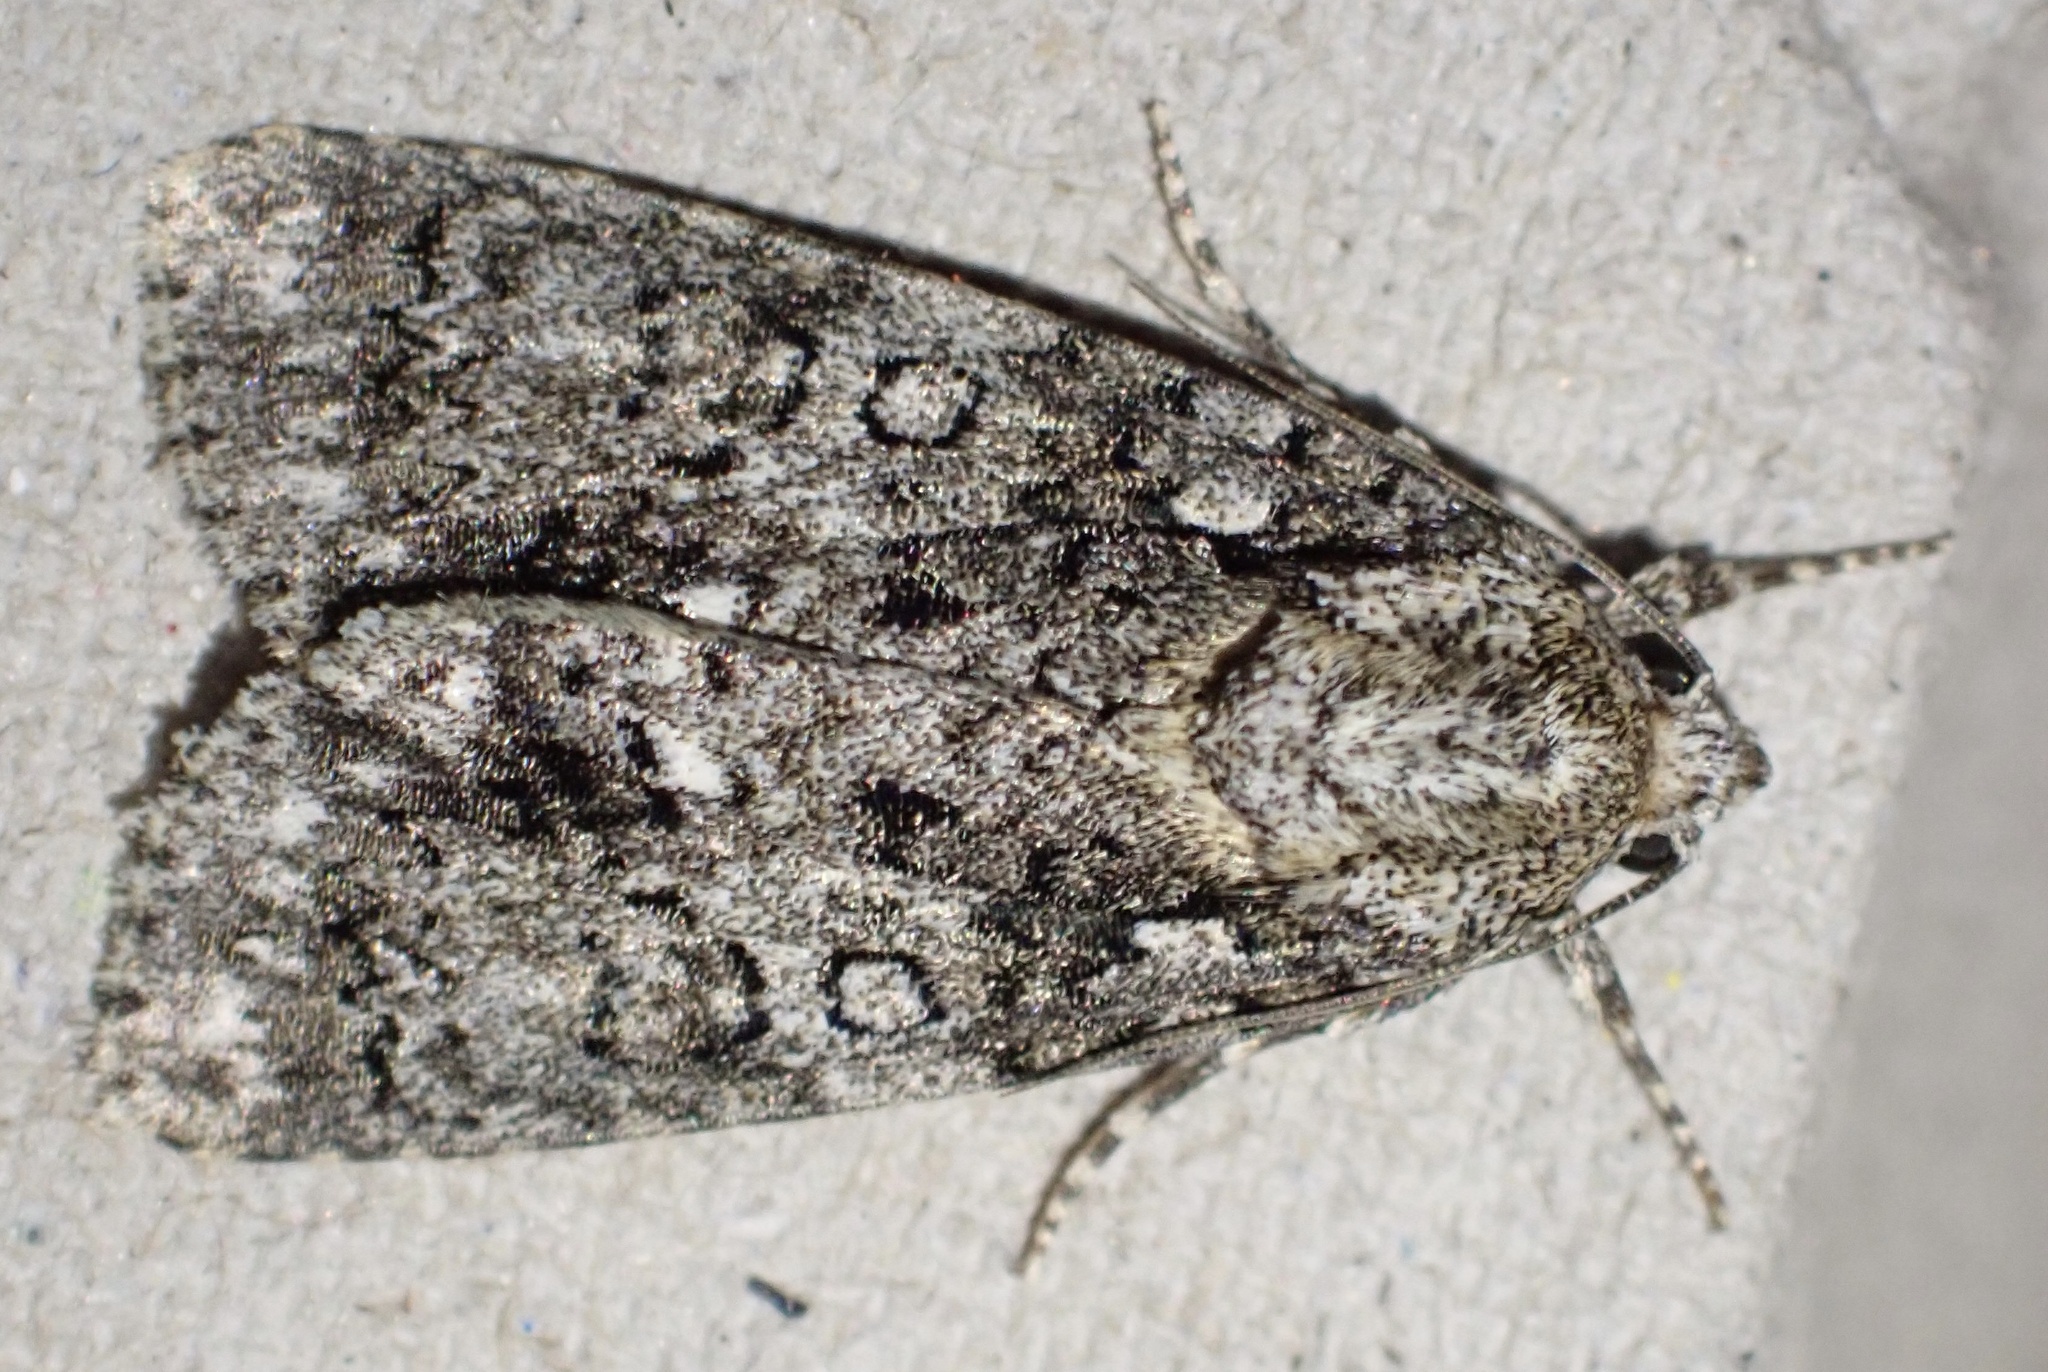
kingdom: Animalia
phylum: Arthropoda
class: Insecta
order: Lepidoptera
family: Noctuidae
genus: Acronicta
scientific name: Acronicta rumicis
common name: Knot grass
